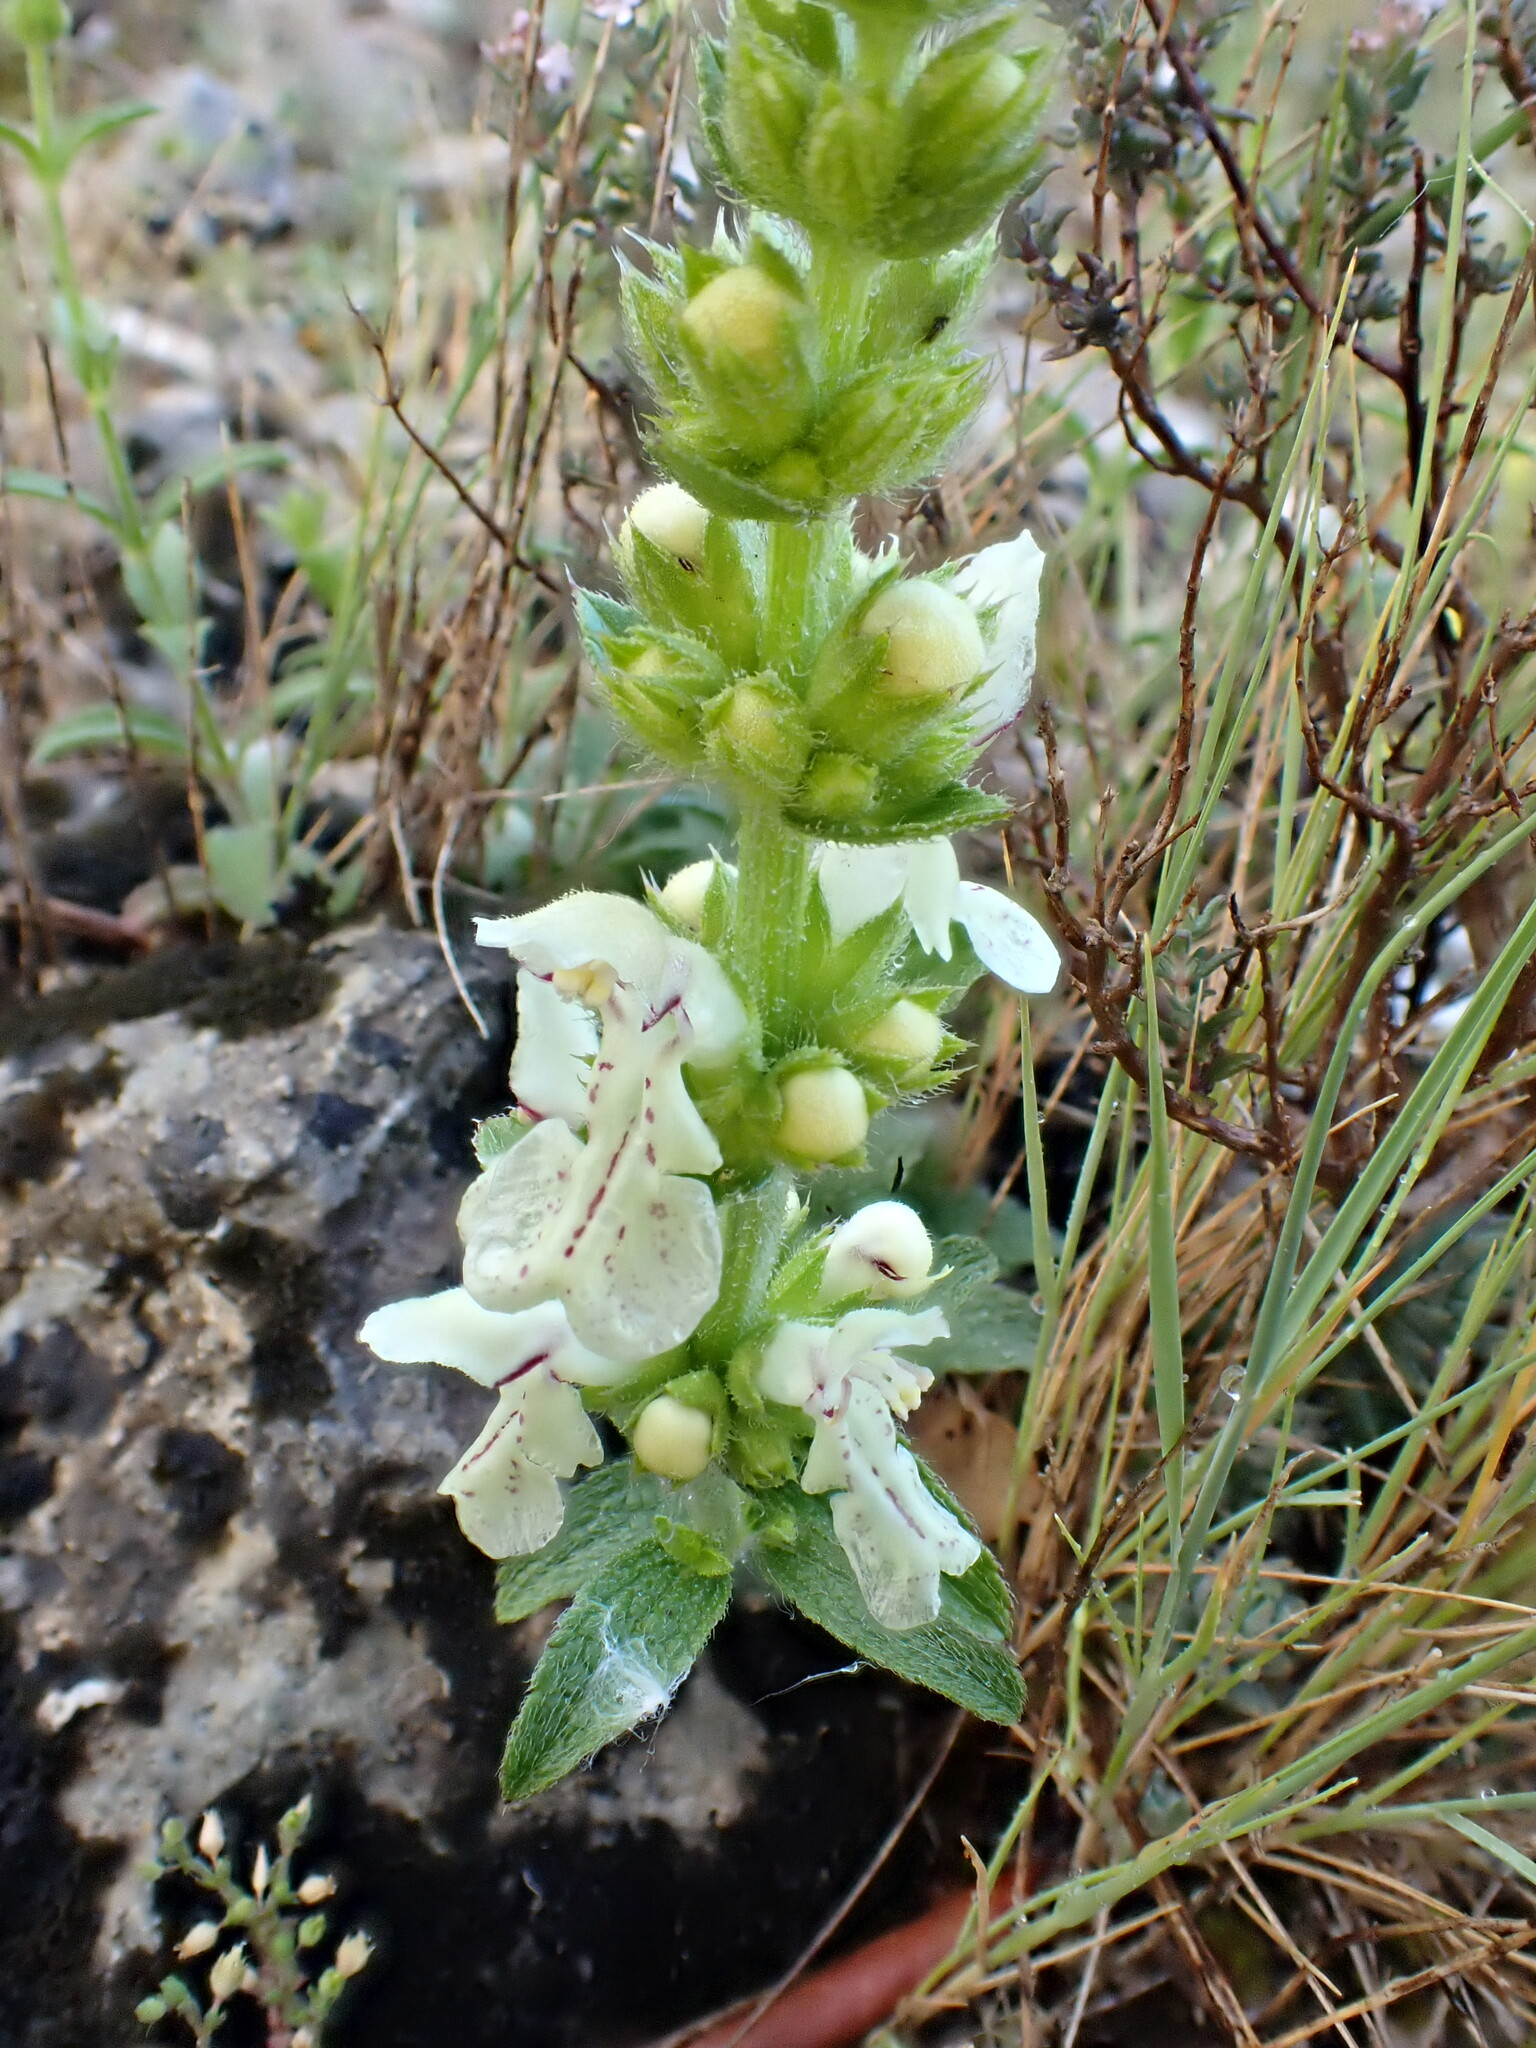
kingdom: Plantae
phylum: Tracheophyta
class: Magnoliopsida
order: Lamiales
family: Lamiaceae
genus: Stachys
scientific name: Stachys recta
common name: Perennial yellow-woundwort
